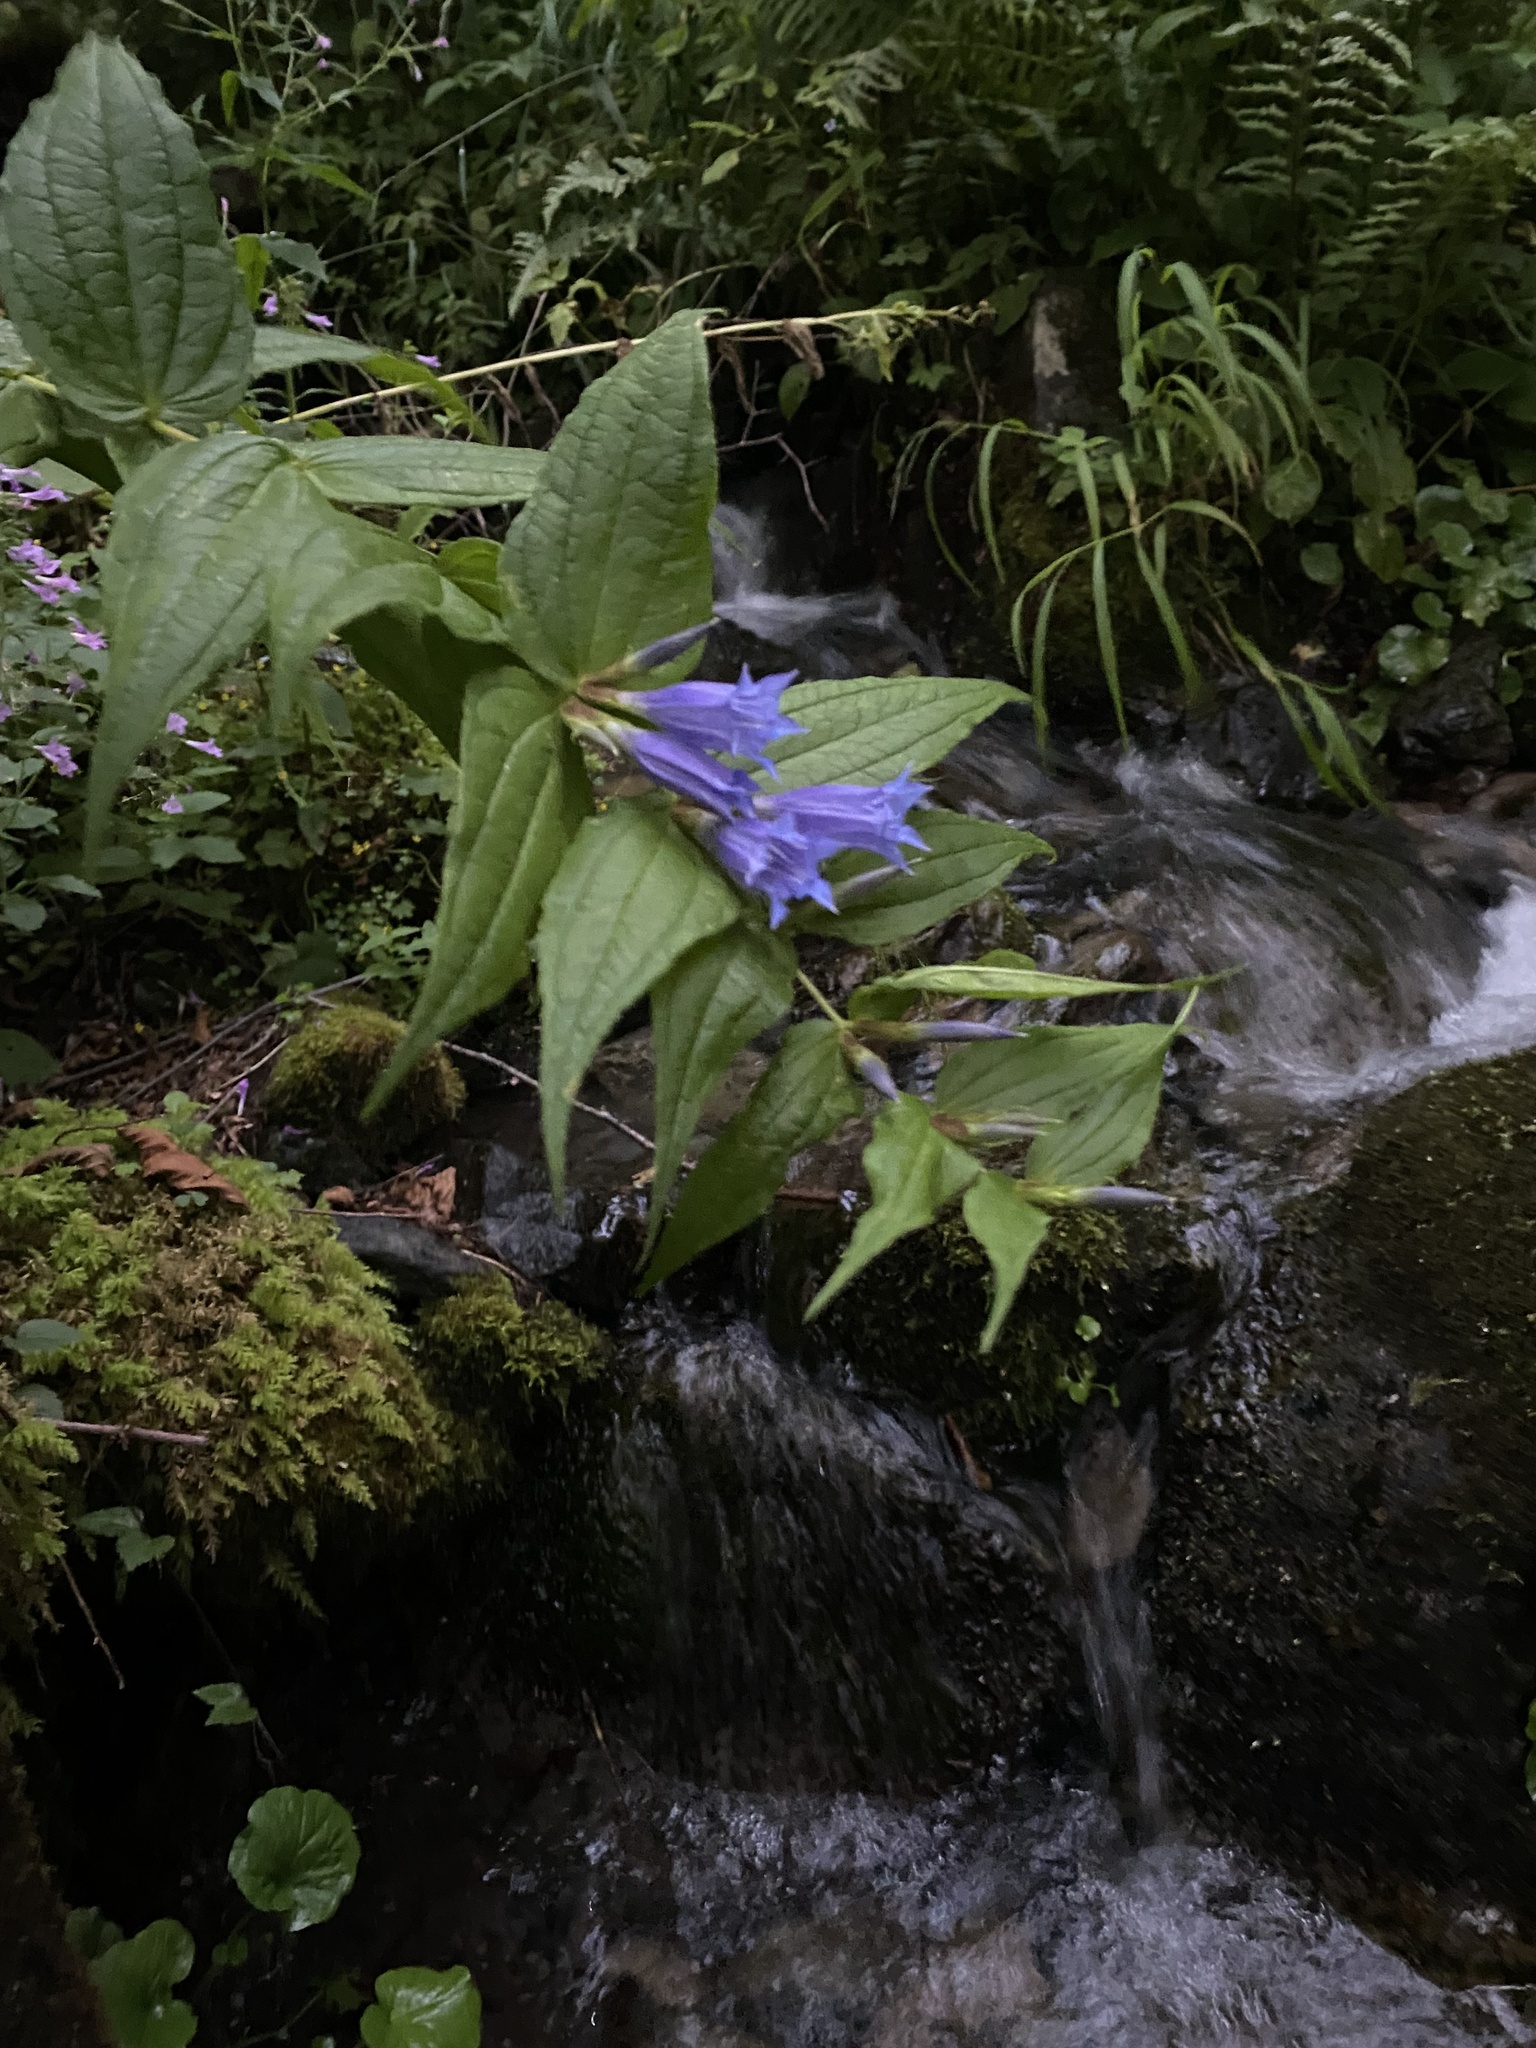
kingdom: Plantae
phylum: Tracheophyta
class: Magnoliopsida
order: Gentianales
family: Gentianaceae
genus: Gentiana
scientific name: Gentiana asclepiadea
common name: Willow gentian
